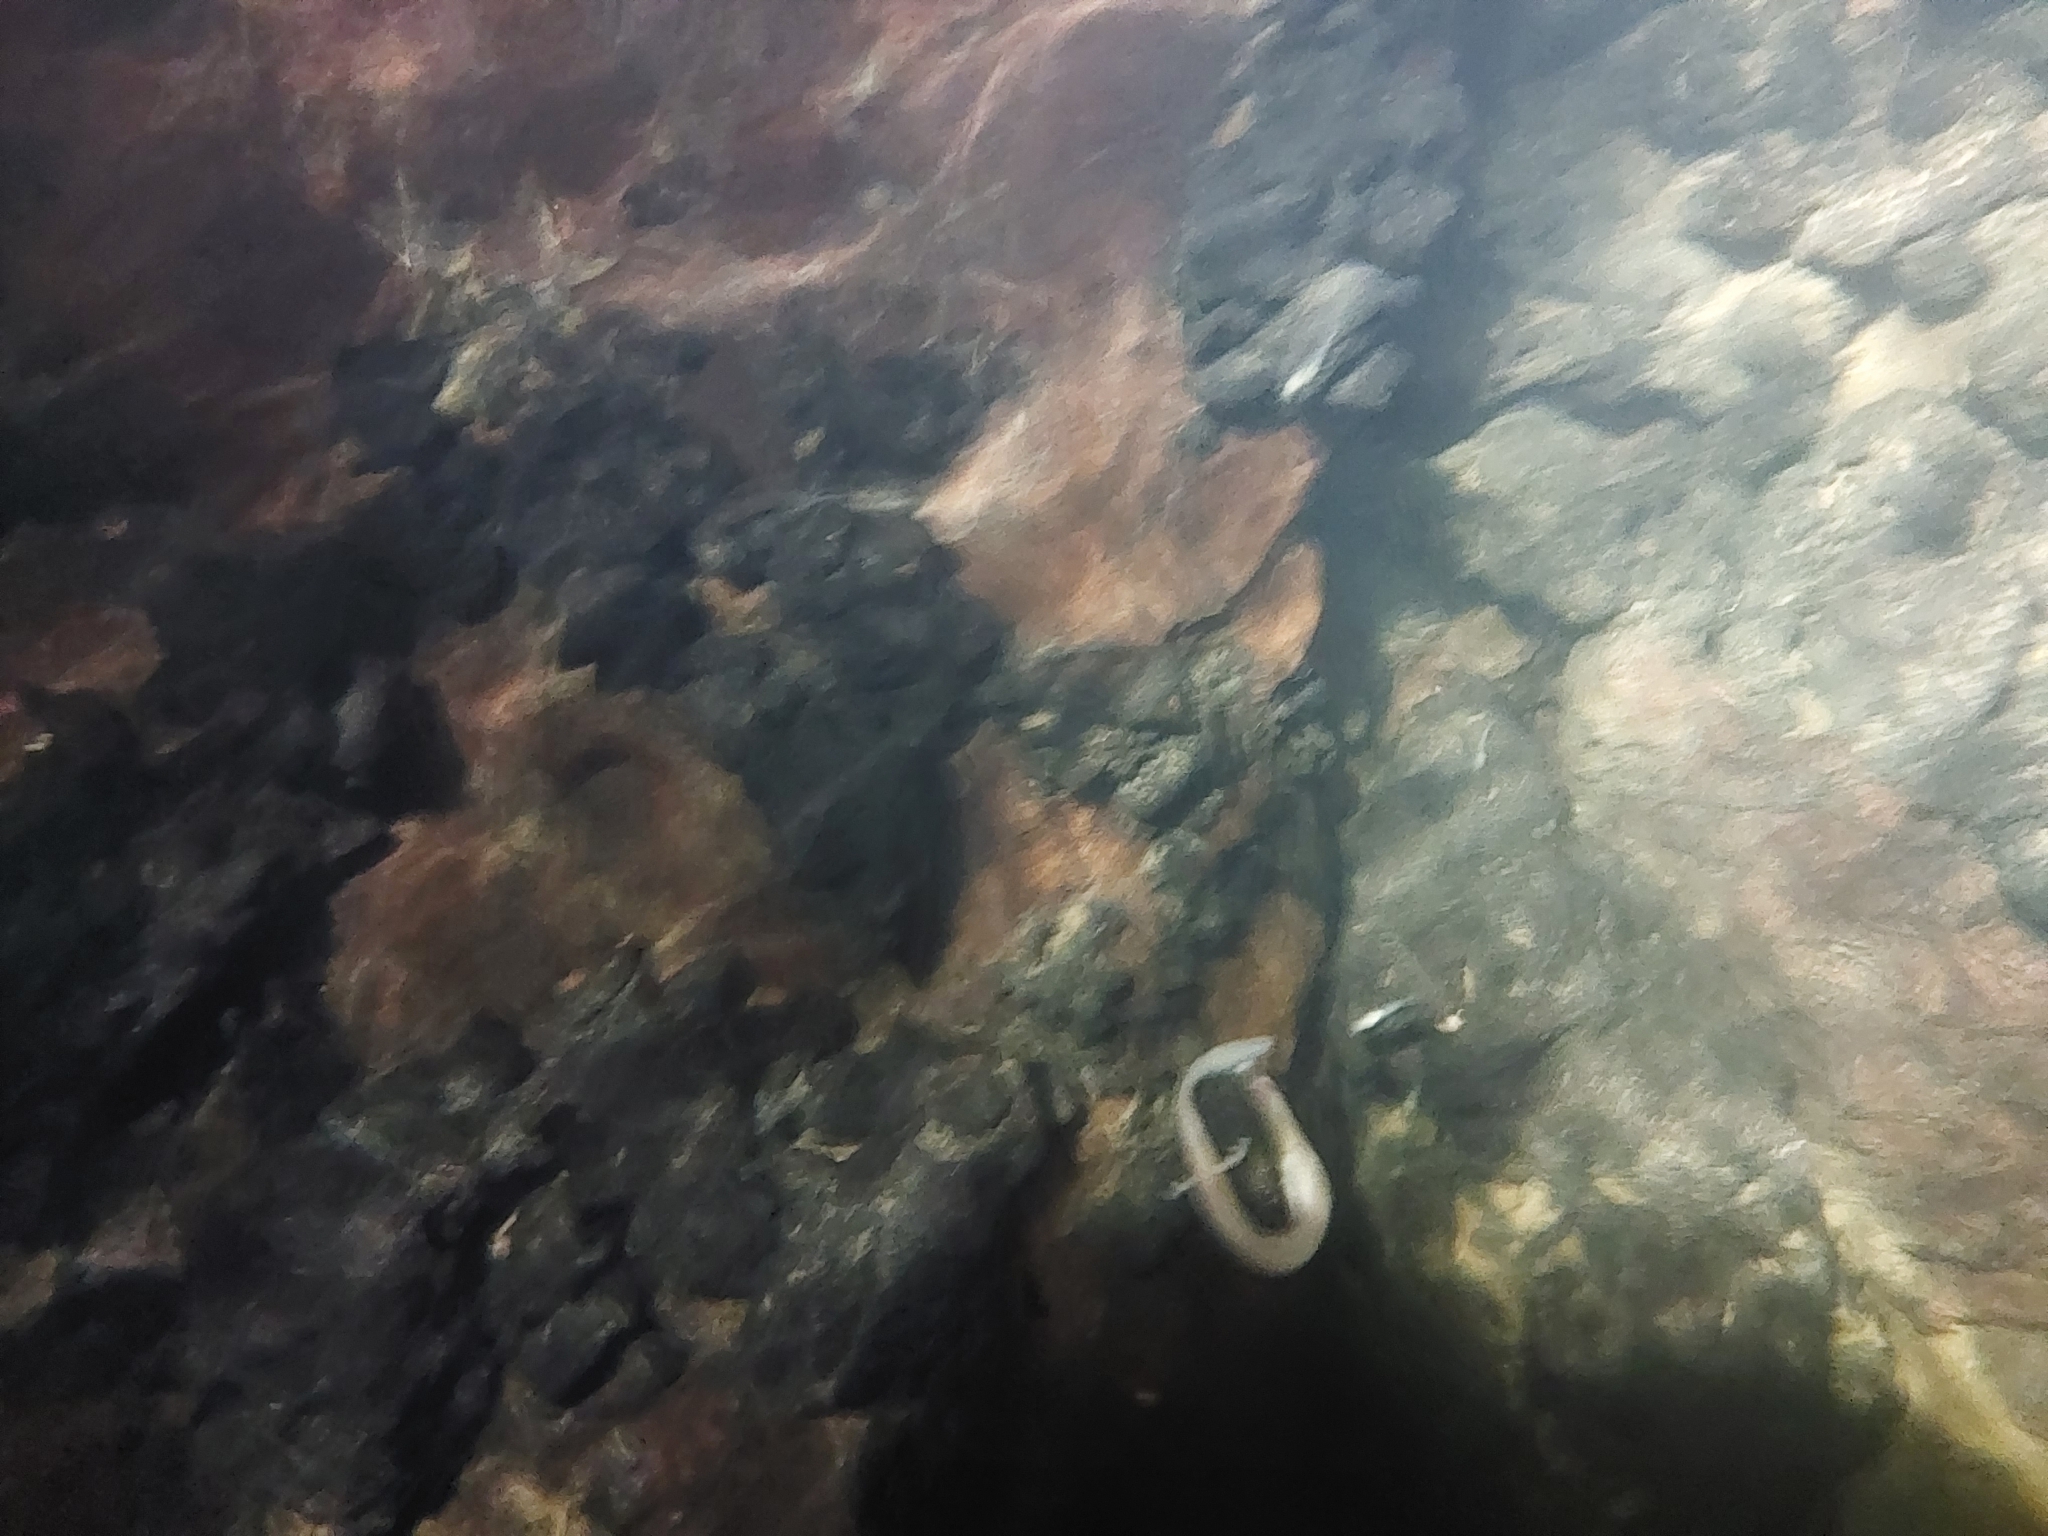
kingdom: Animalia
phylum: Chordata
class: Amphibia
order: Caudata
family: Proteidae
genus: Proteus
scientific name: Proteus anguinus
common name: Olm
